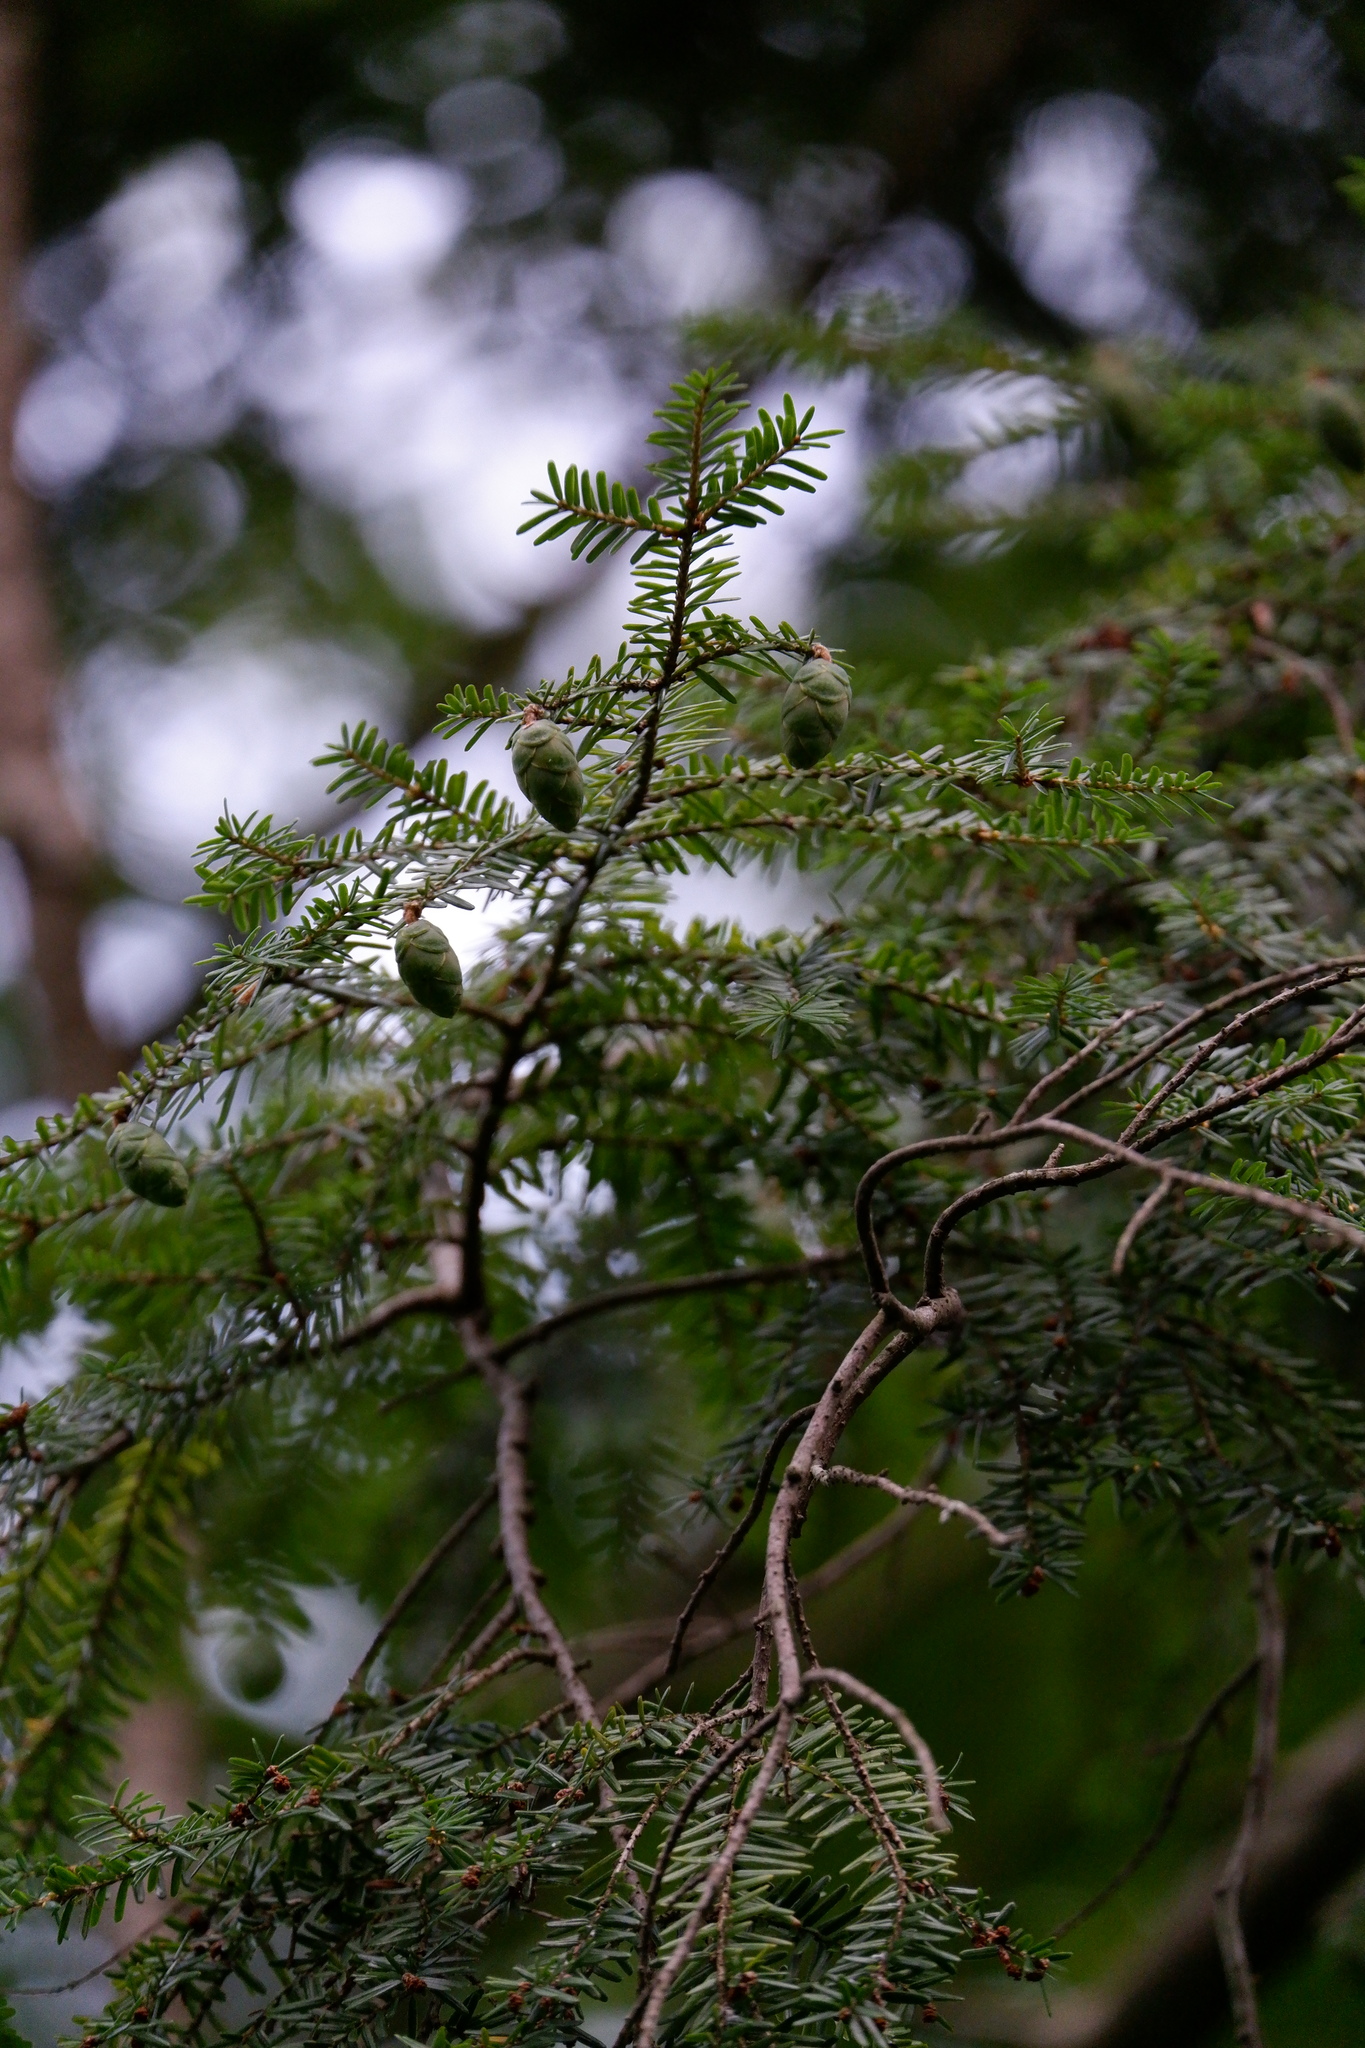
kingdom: Plantae
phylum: Tracheophyta
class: Pinopsida
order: Pinales
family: Pinaceae
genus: Tsuga
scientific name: Tsuga canadensis
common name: Eastern hemlock
